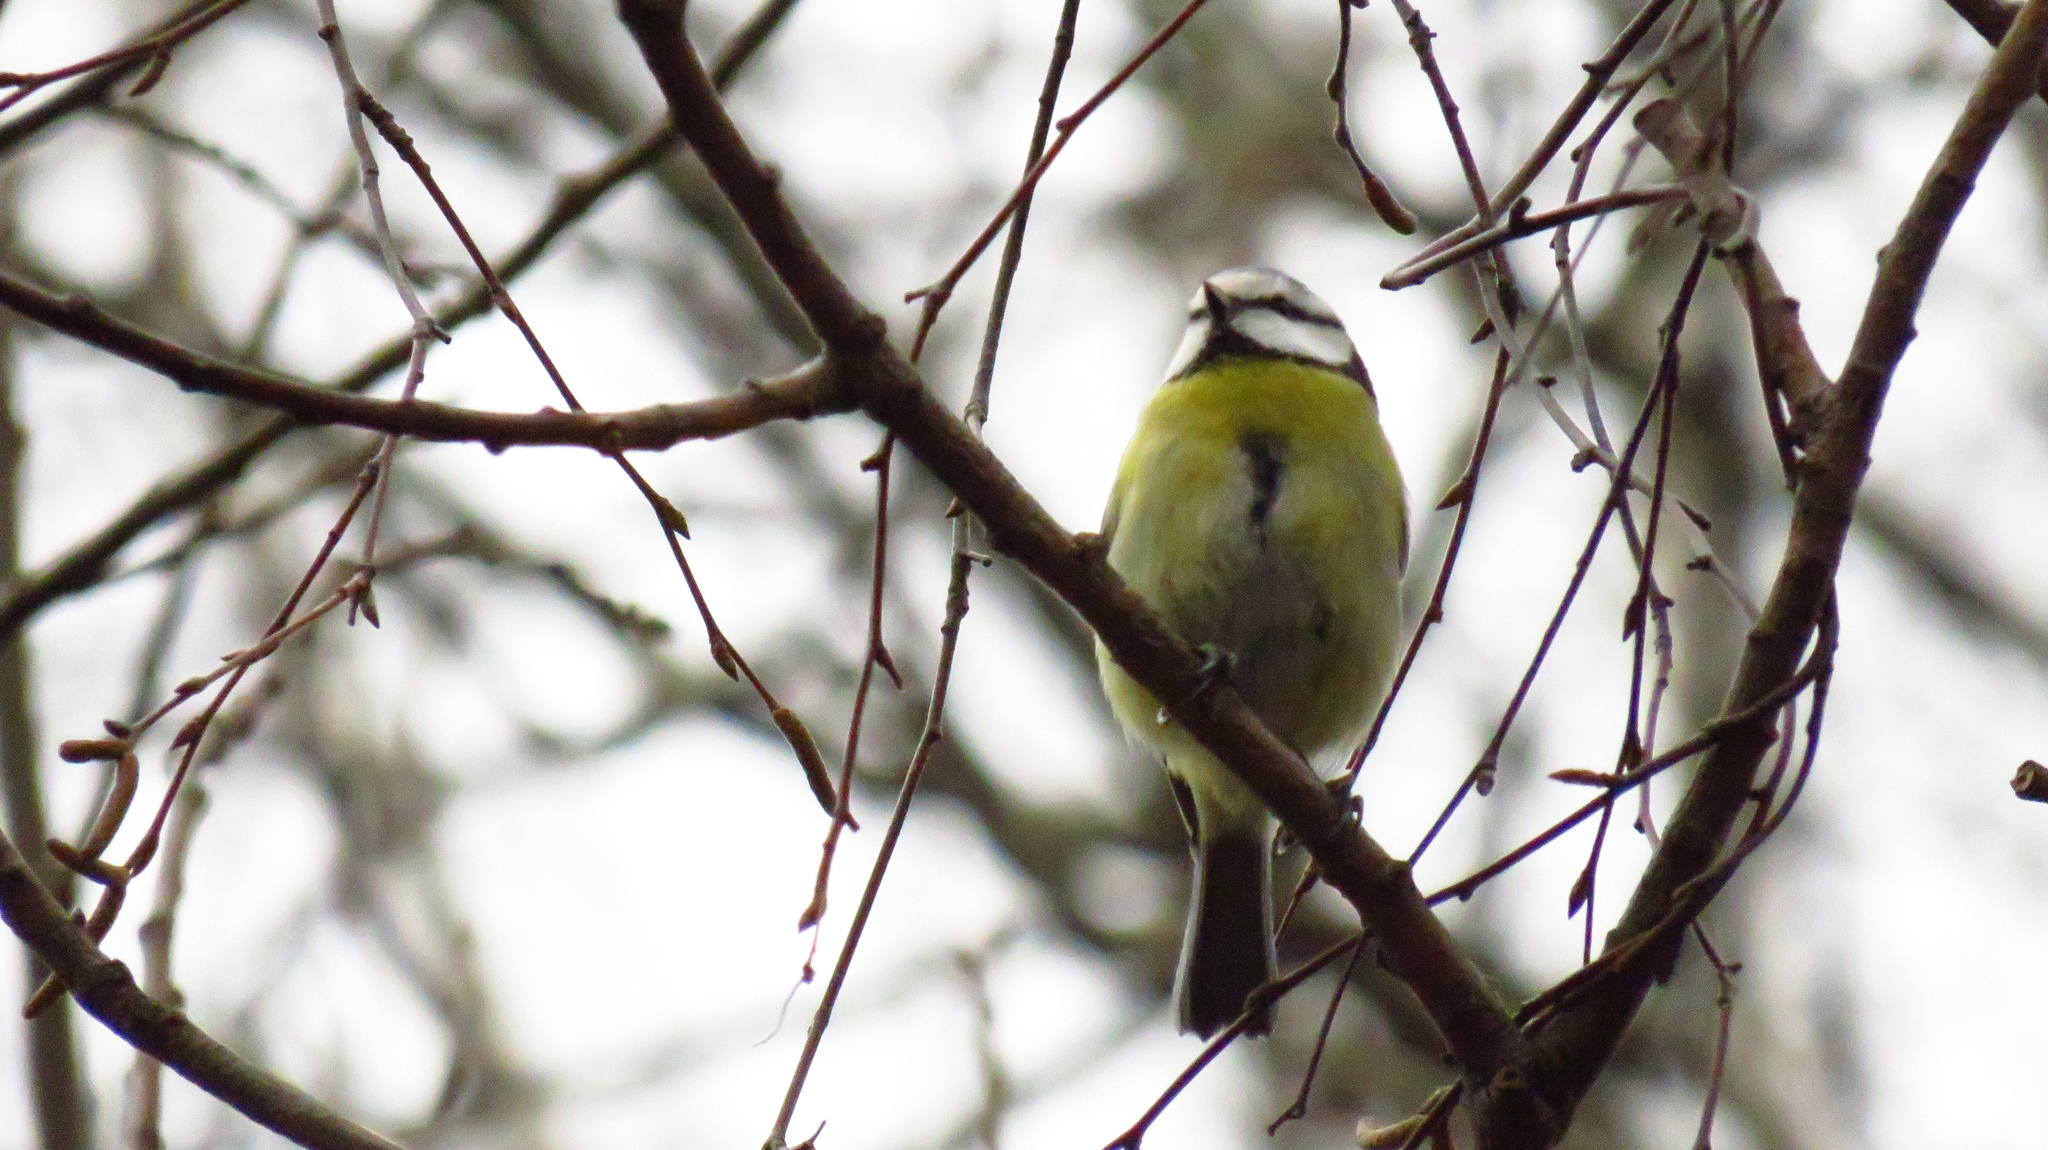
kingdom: Animalia
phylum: Chordata
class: Aves
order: Passeriformes
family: Paridae
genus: Cyanistes
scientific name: Cyanistes caeruleus
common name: Eurasian blue tit
